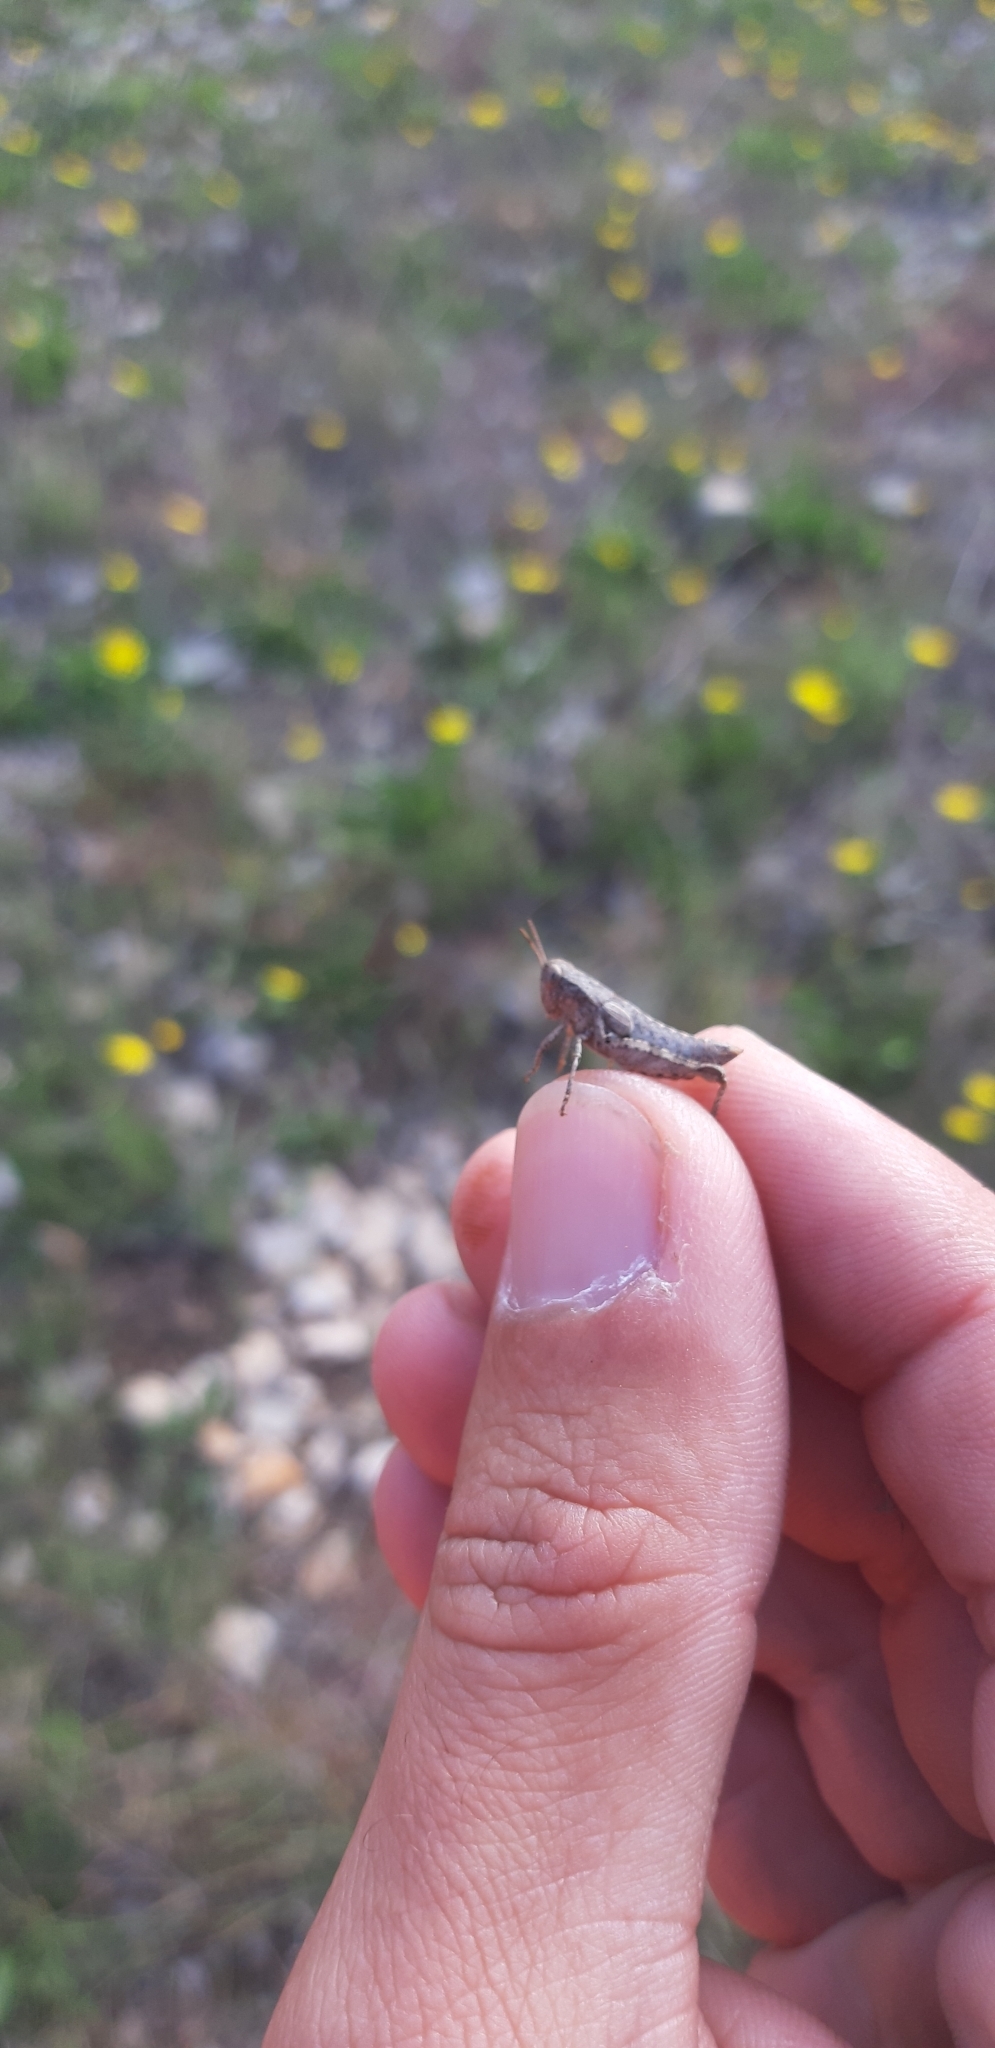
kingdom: Animalia
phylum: Arthropoda
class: Insecta
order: Orthoptera
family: Acrididae
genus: Pezotettix
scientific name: Pezotettix giornae
